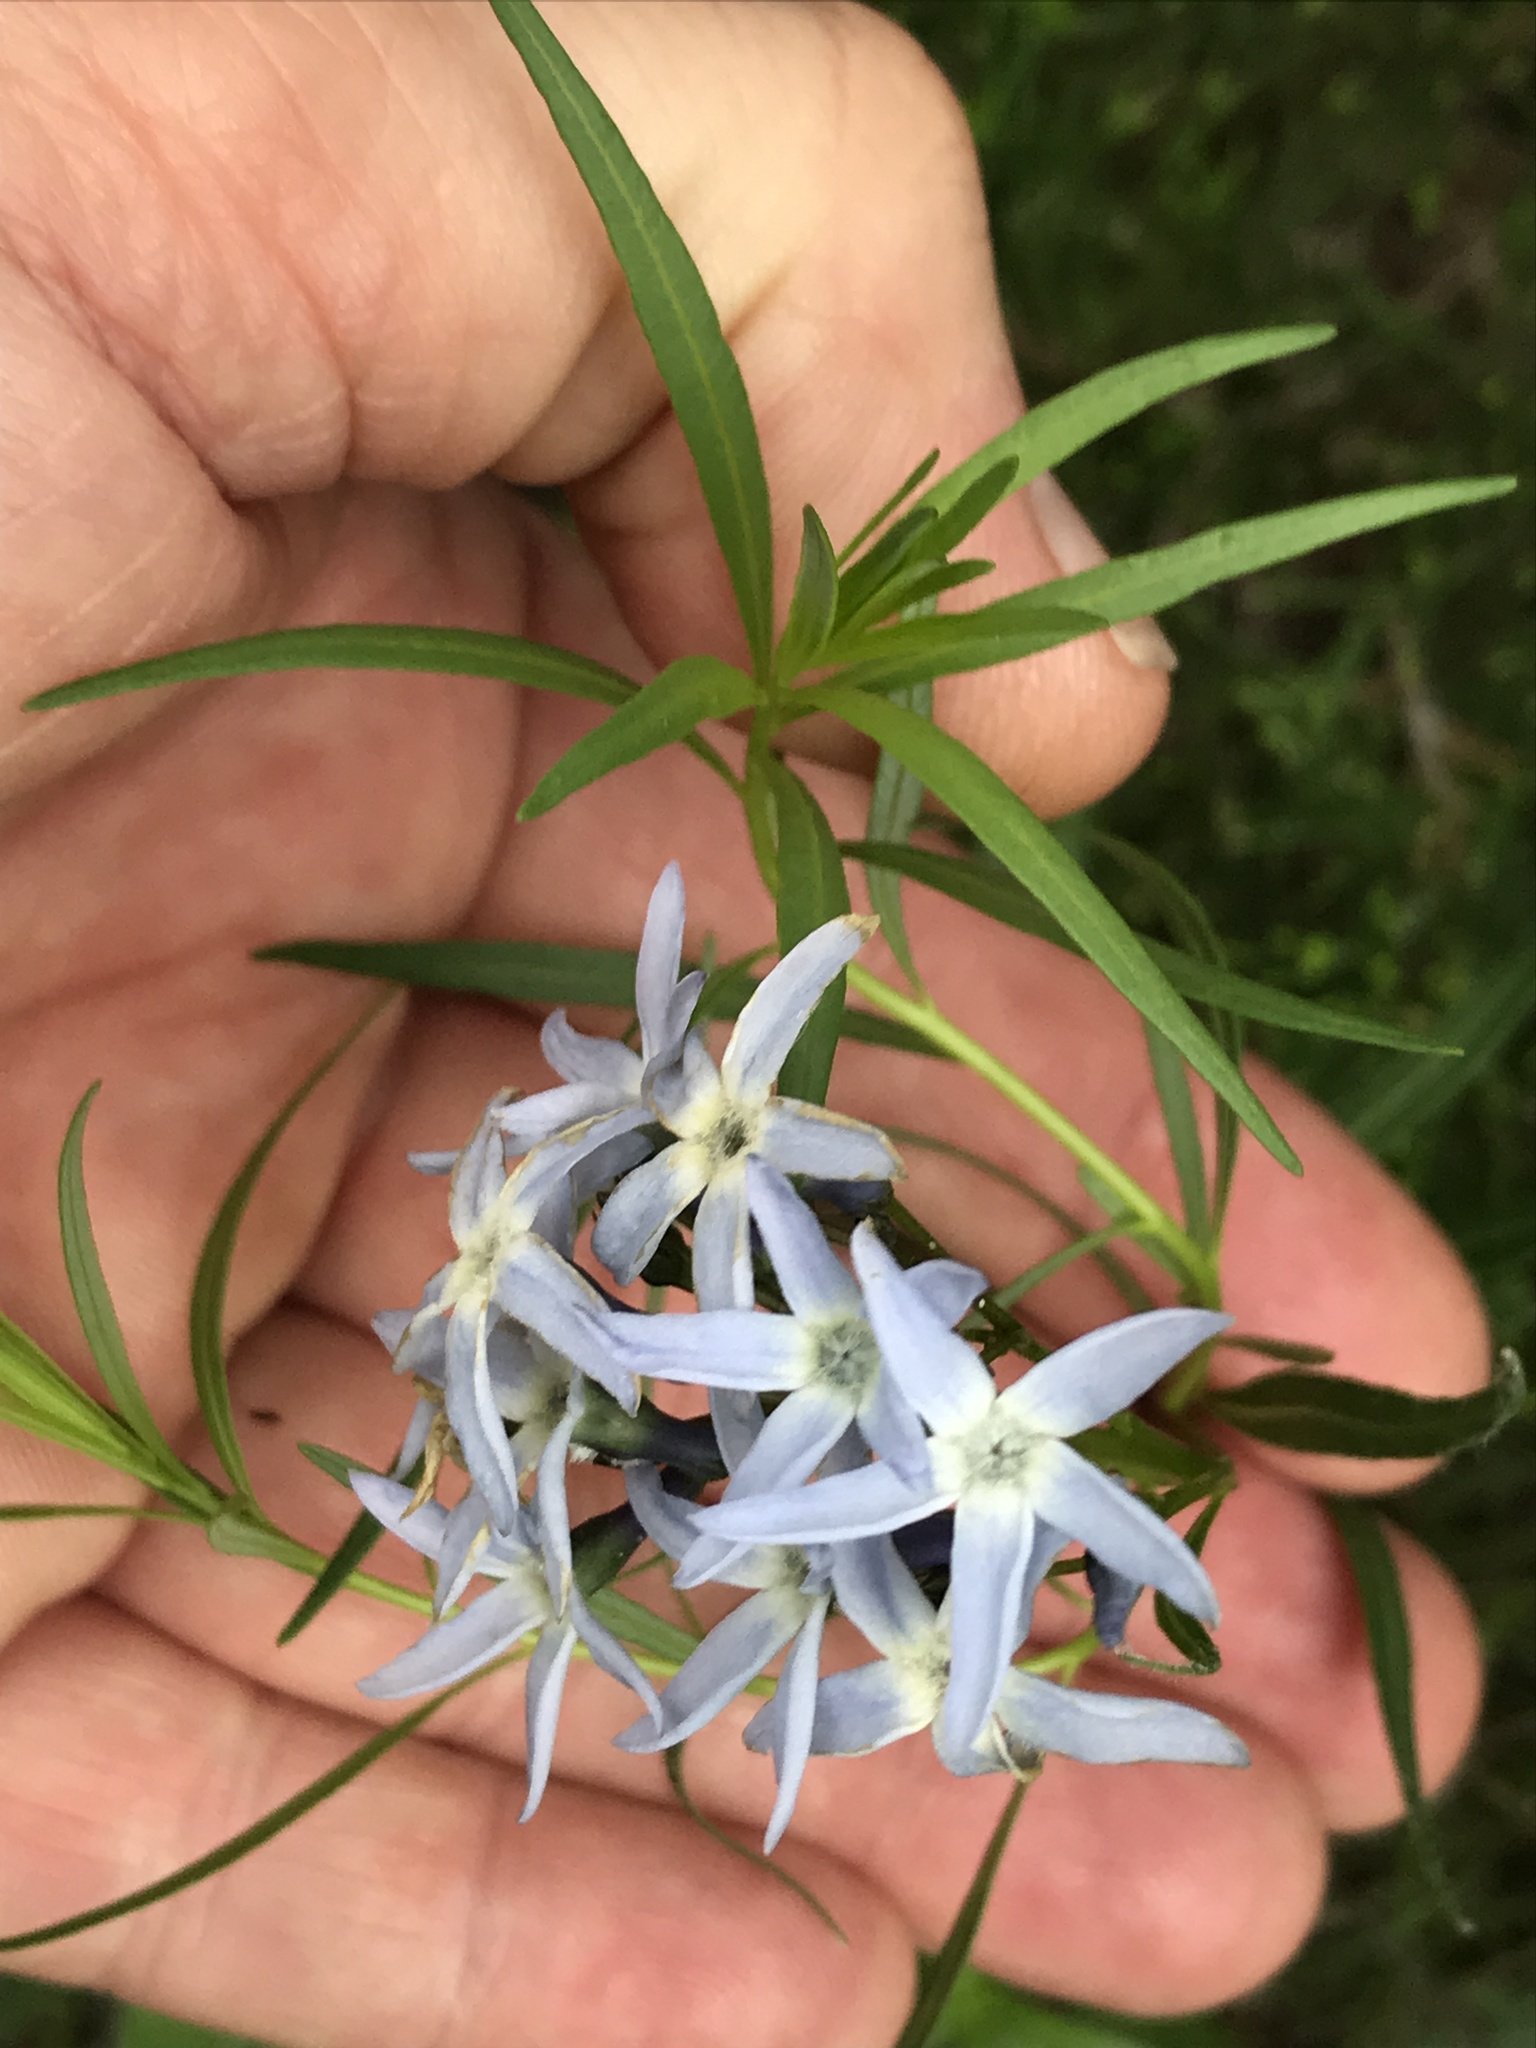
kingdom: Plantae
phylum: Tracheophyta
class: Magnoliopsida
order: Gentianales
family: Apocynaceae
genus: Amsonia
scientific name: Amsonia ciliata
